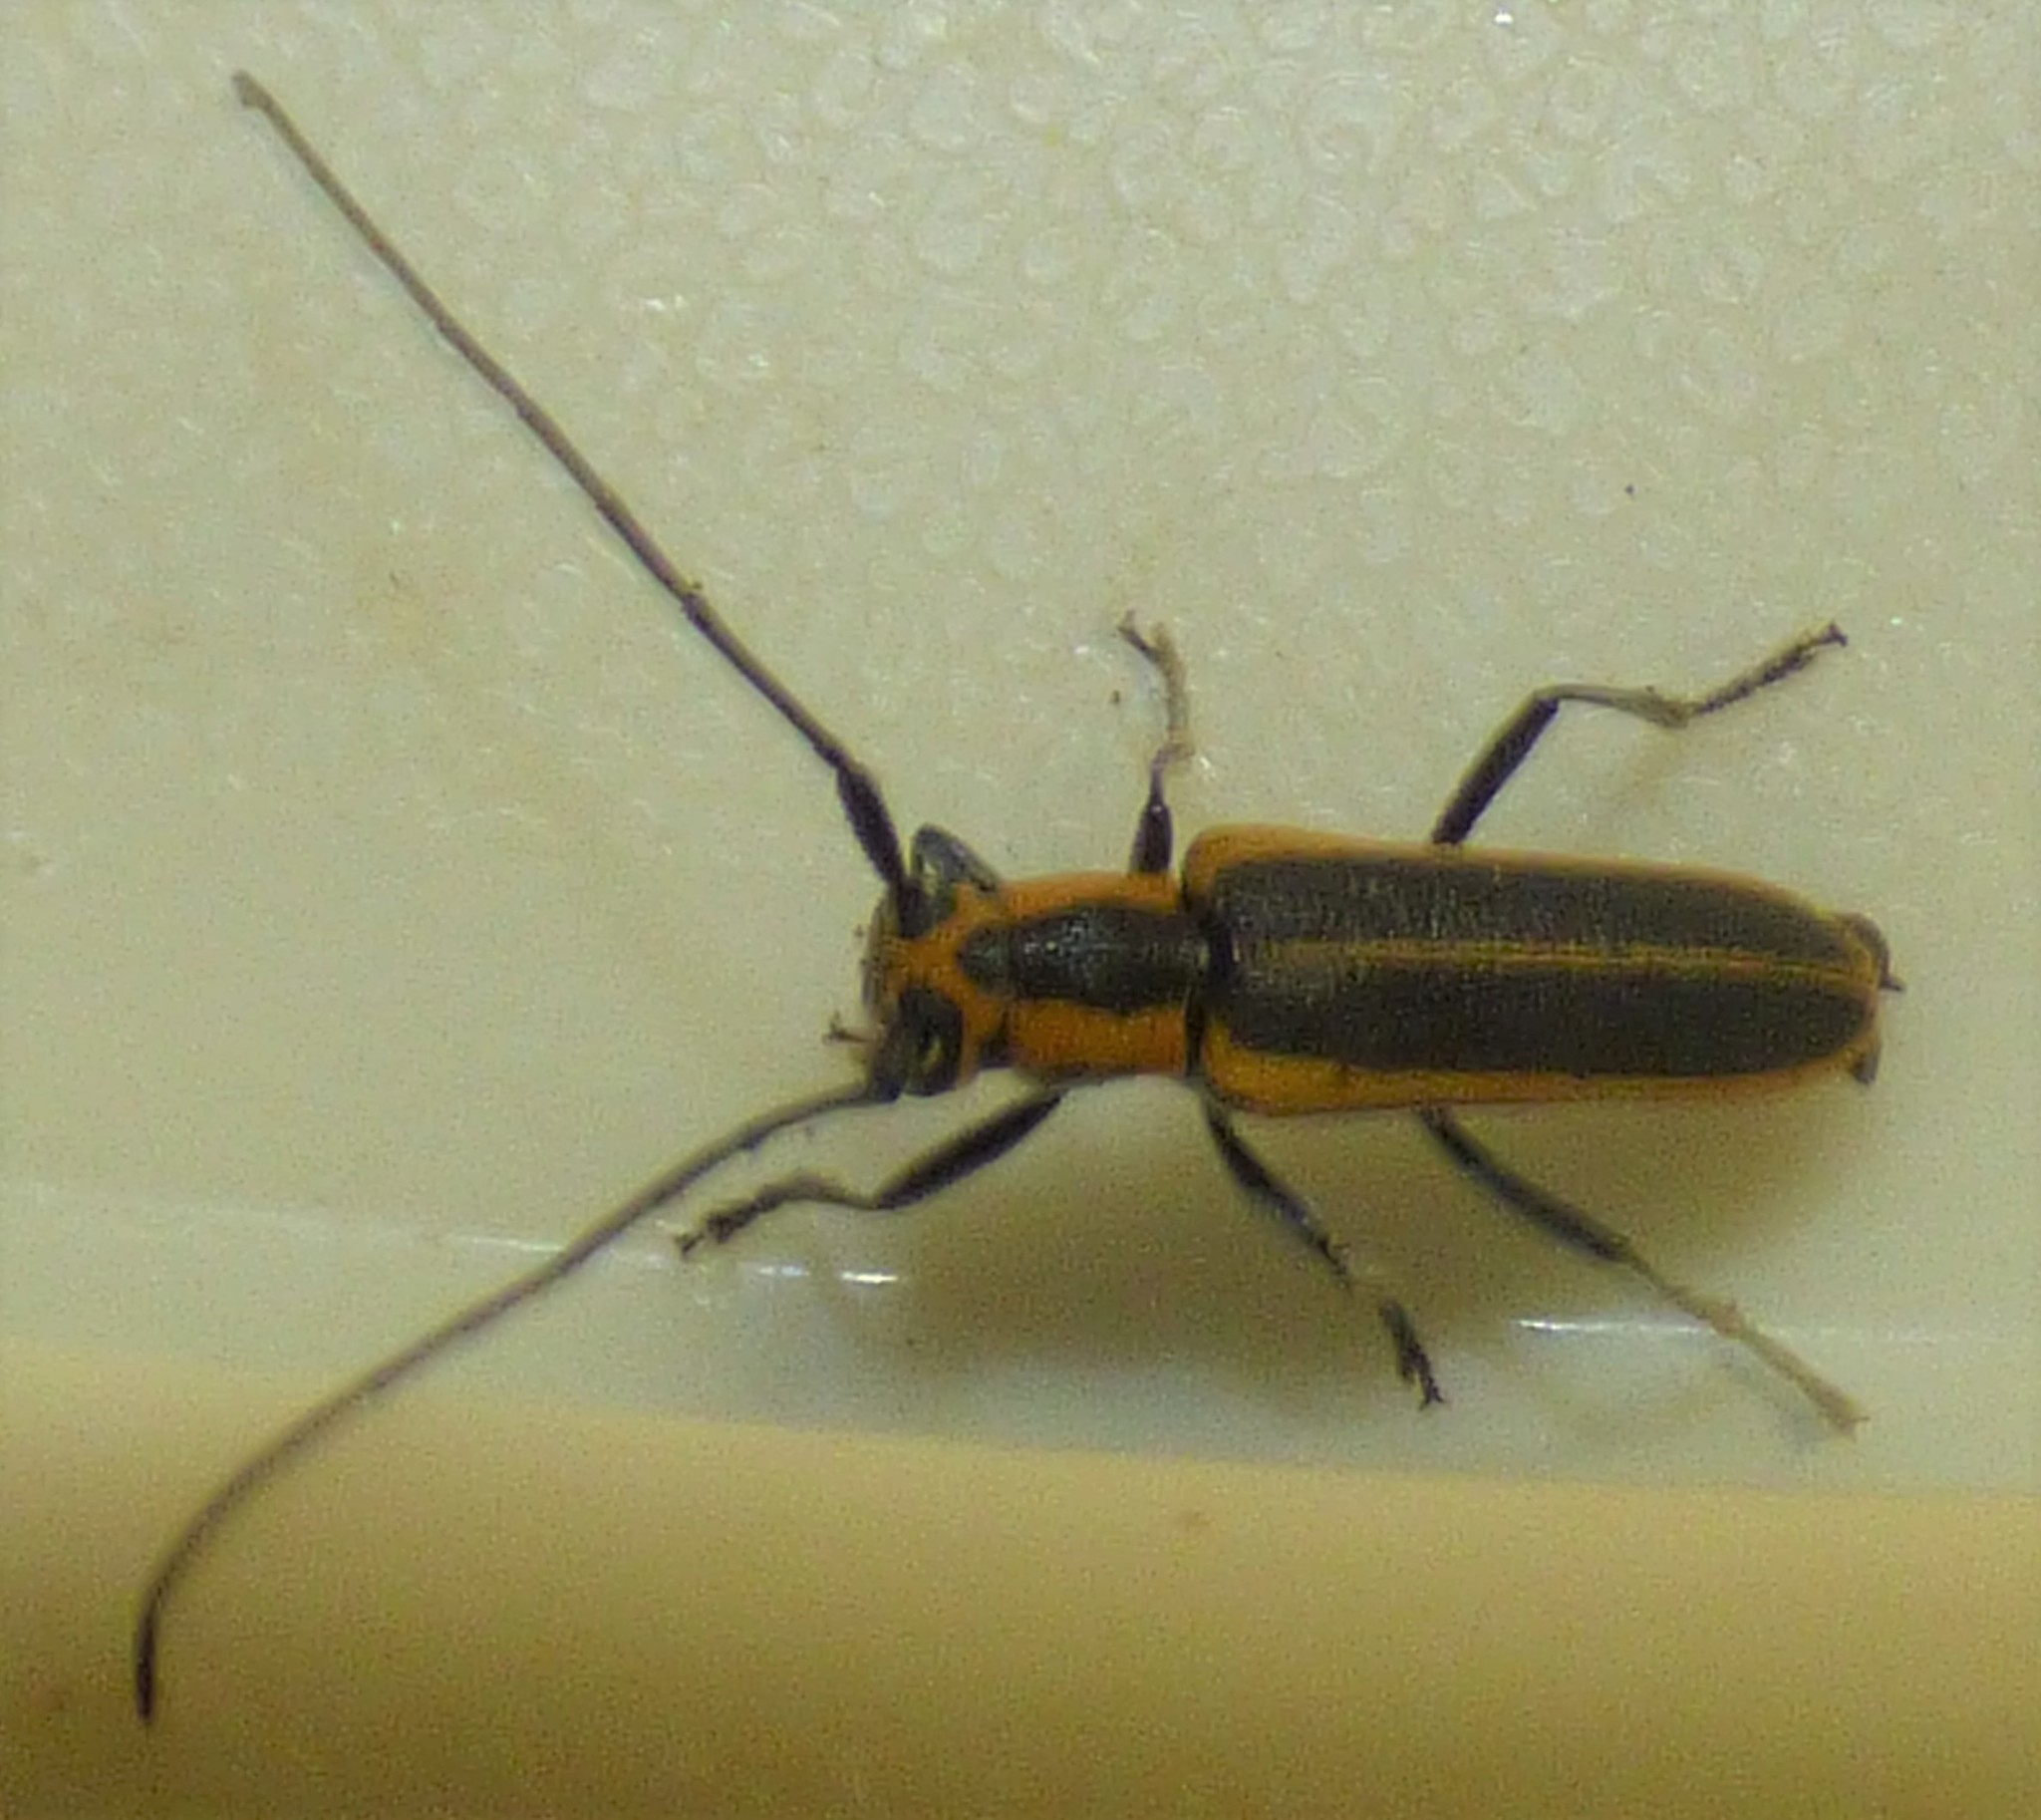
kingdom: Animalia
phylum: Arthropoda
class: Insecta
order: Coleoptera
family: Cerambycidae
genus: Saperda
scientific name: Saperda lateralis
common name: Red-edged saperda
